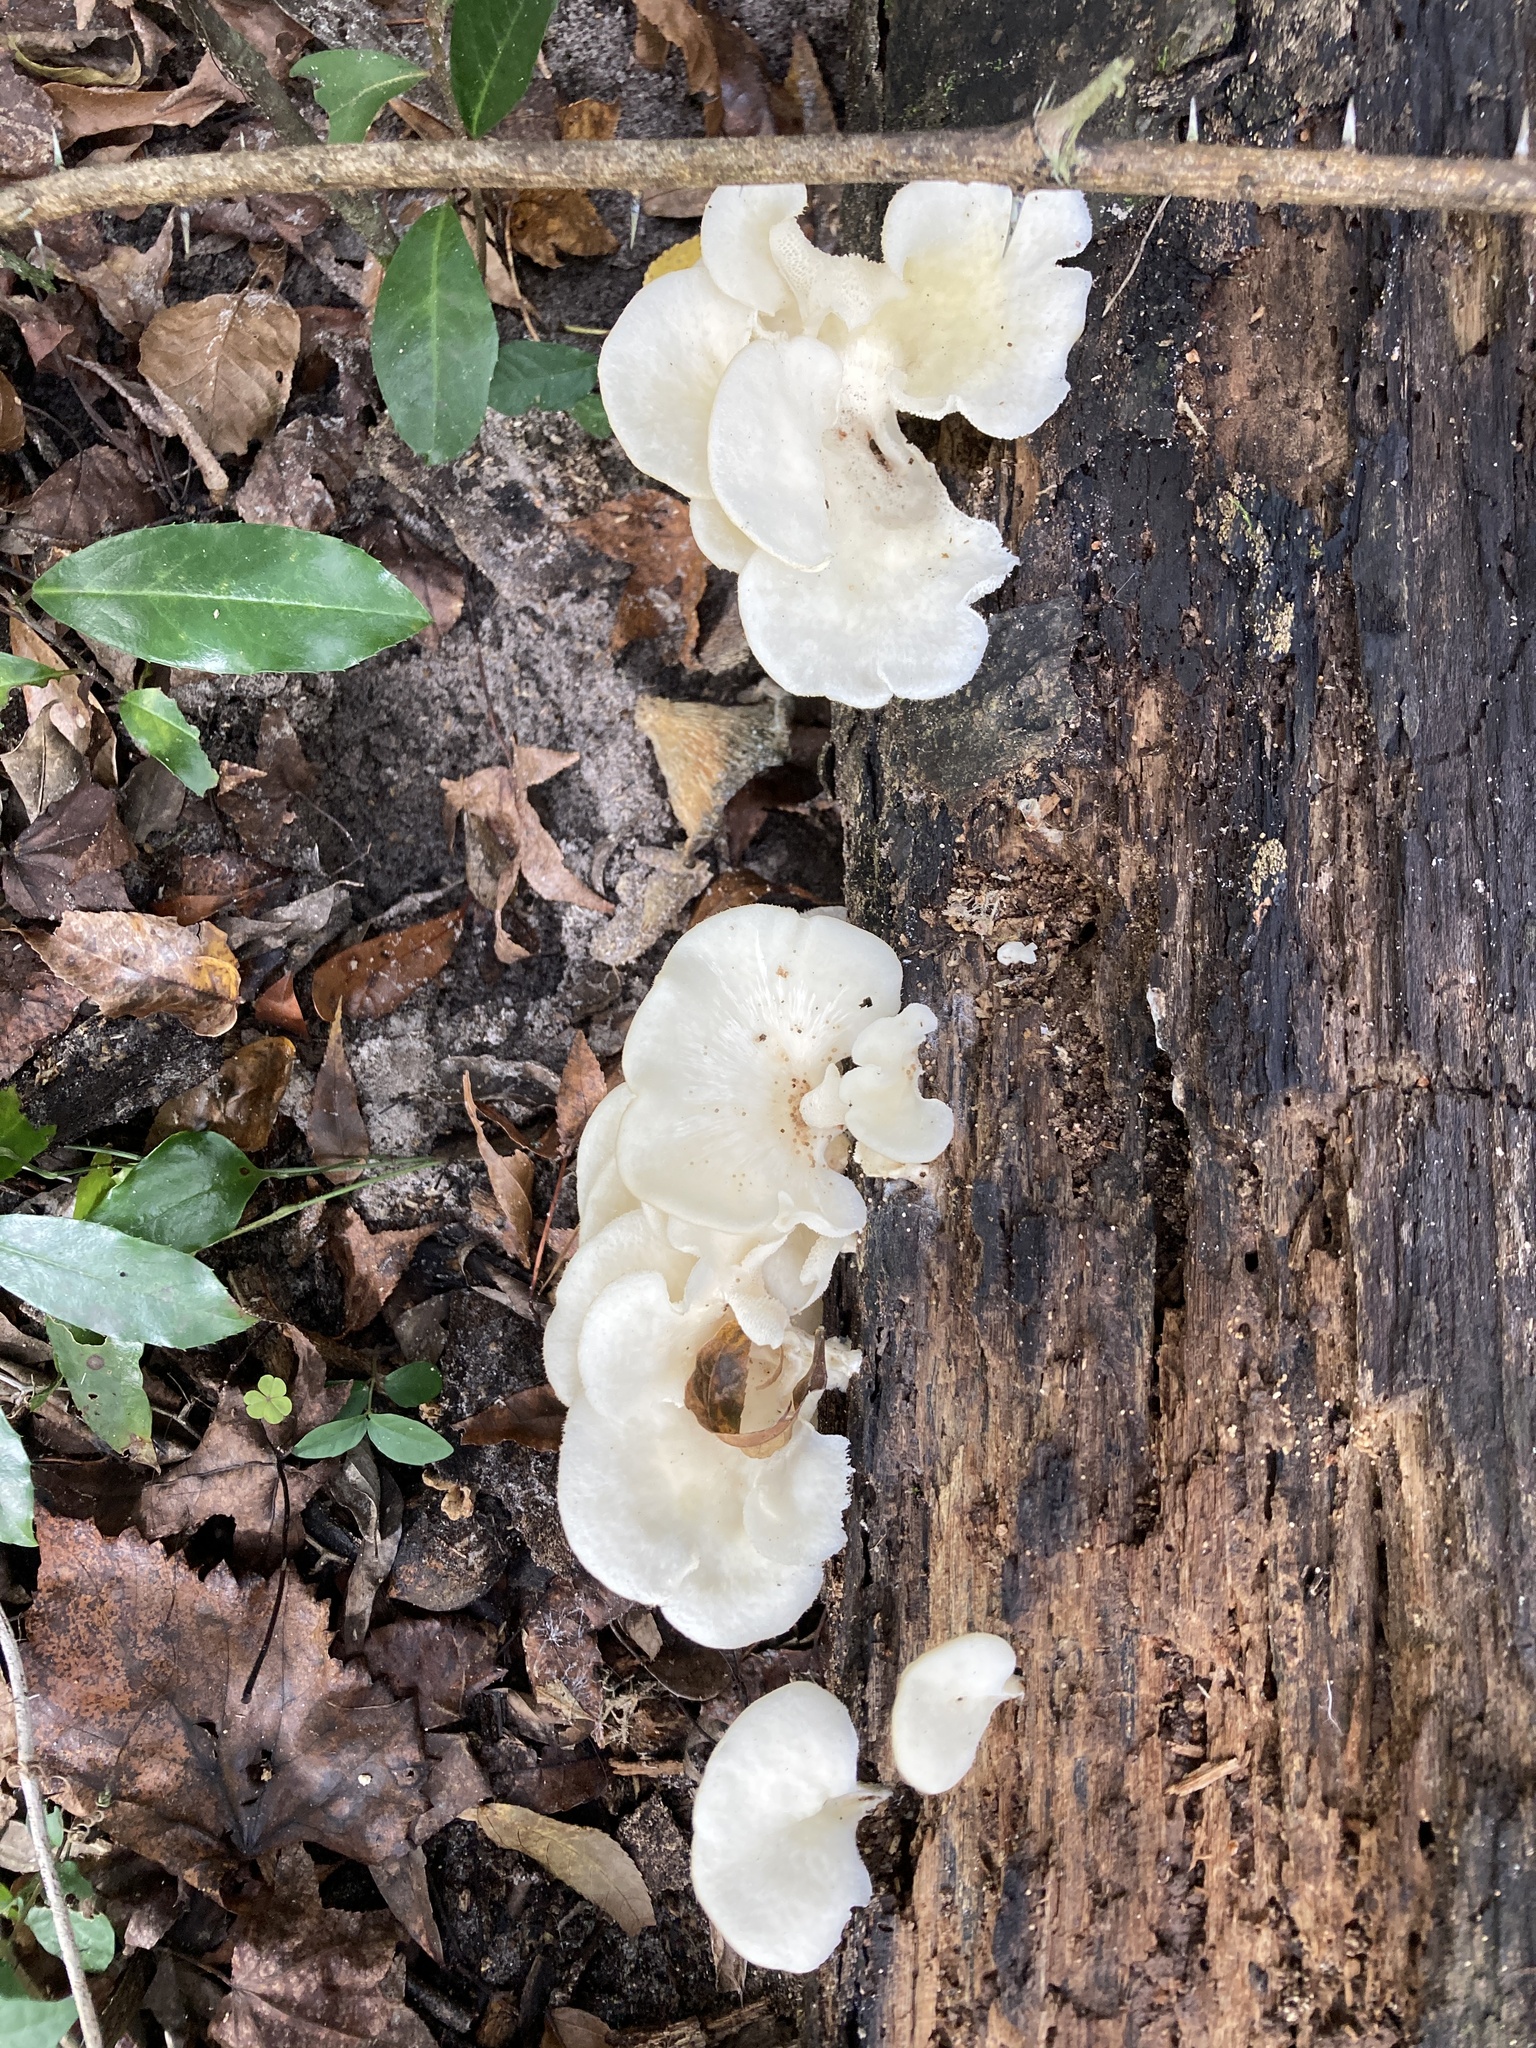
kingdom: Fungi
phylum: Basidiomycota
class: Agaricomycetes
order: Polyporales
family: Polyporaceae
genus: Favolus
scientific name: Favolus tenuiculus
